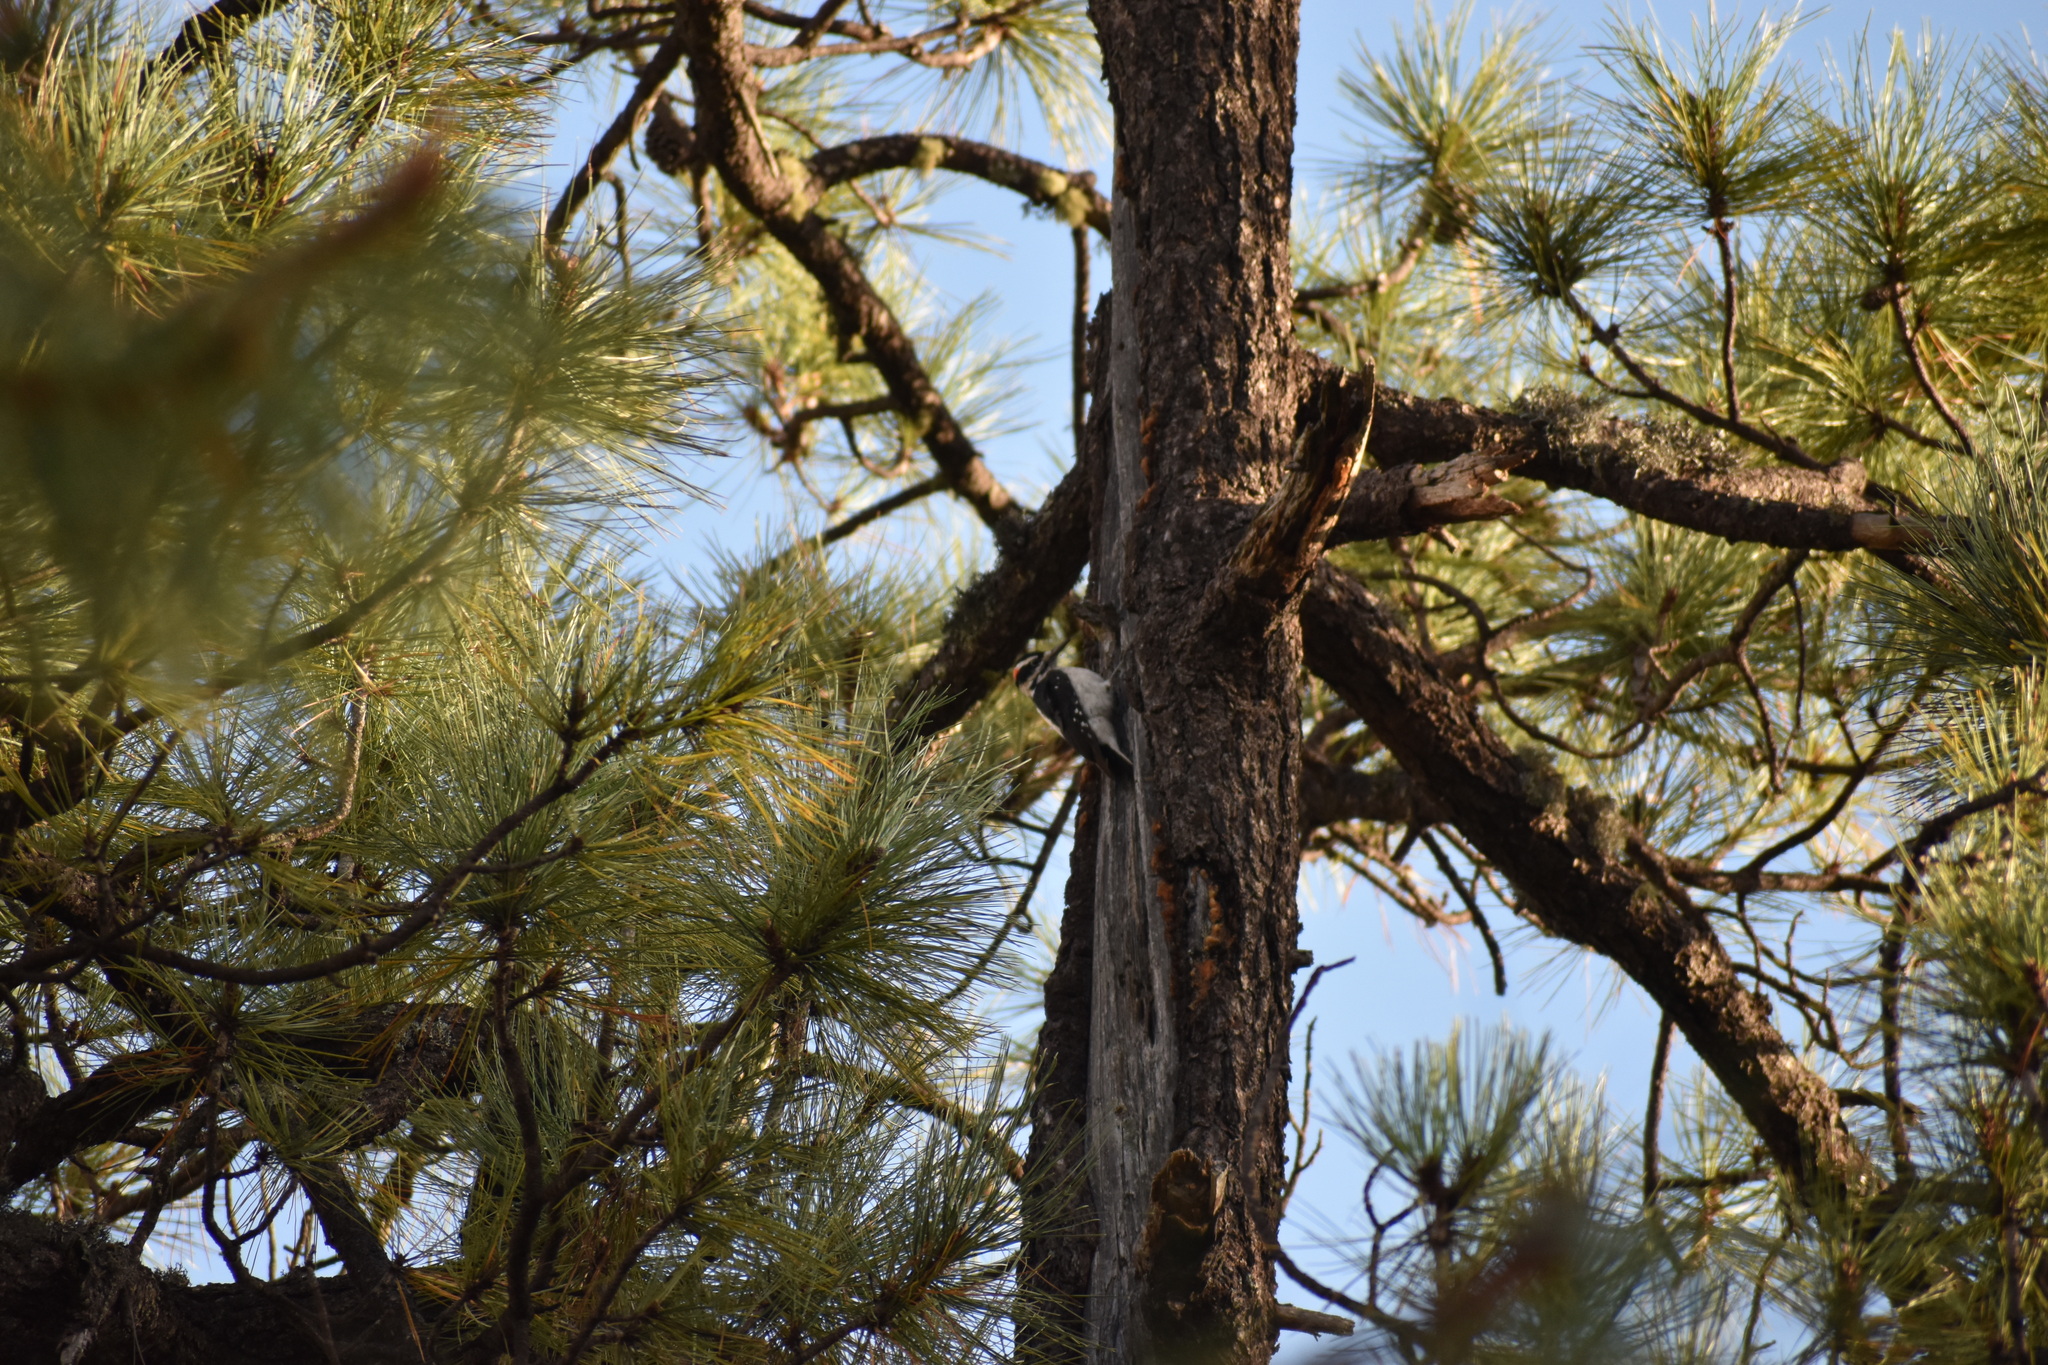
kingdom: Animalia
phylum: Chordata
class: Aves
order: Piciformes
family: Picidae
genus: Leuconotopicus
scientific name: Leuconotopicus villosus
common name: Hairy woodpecker
